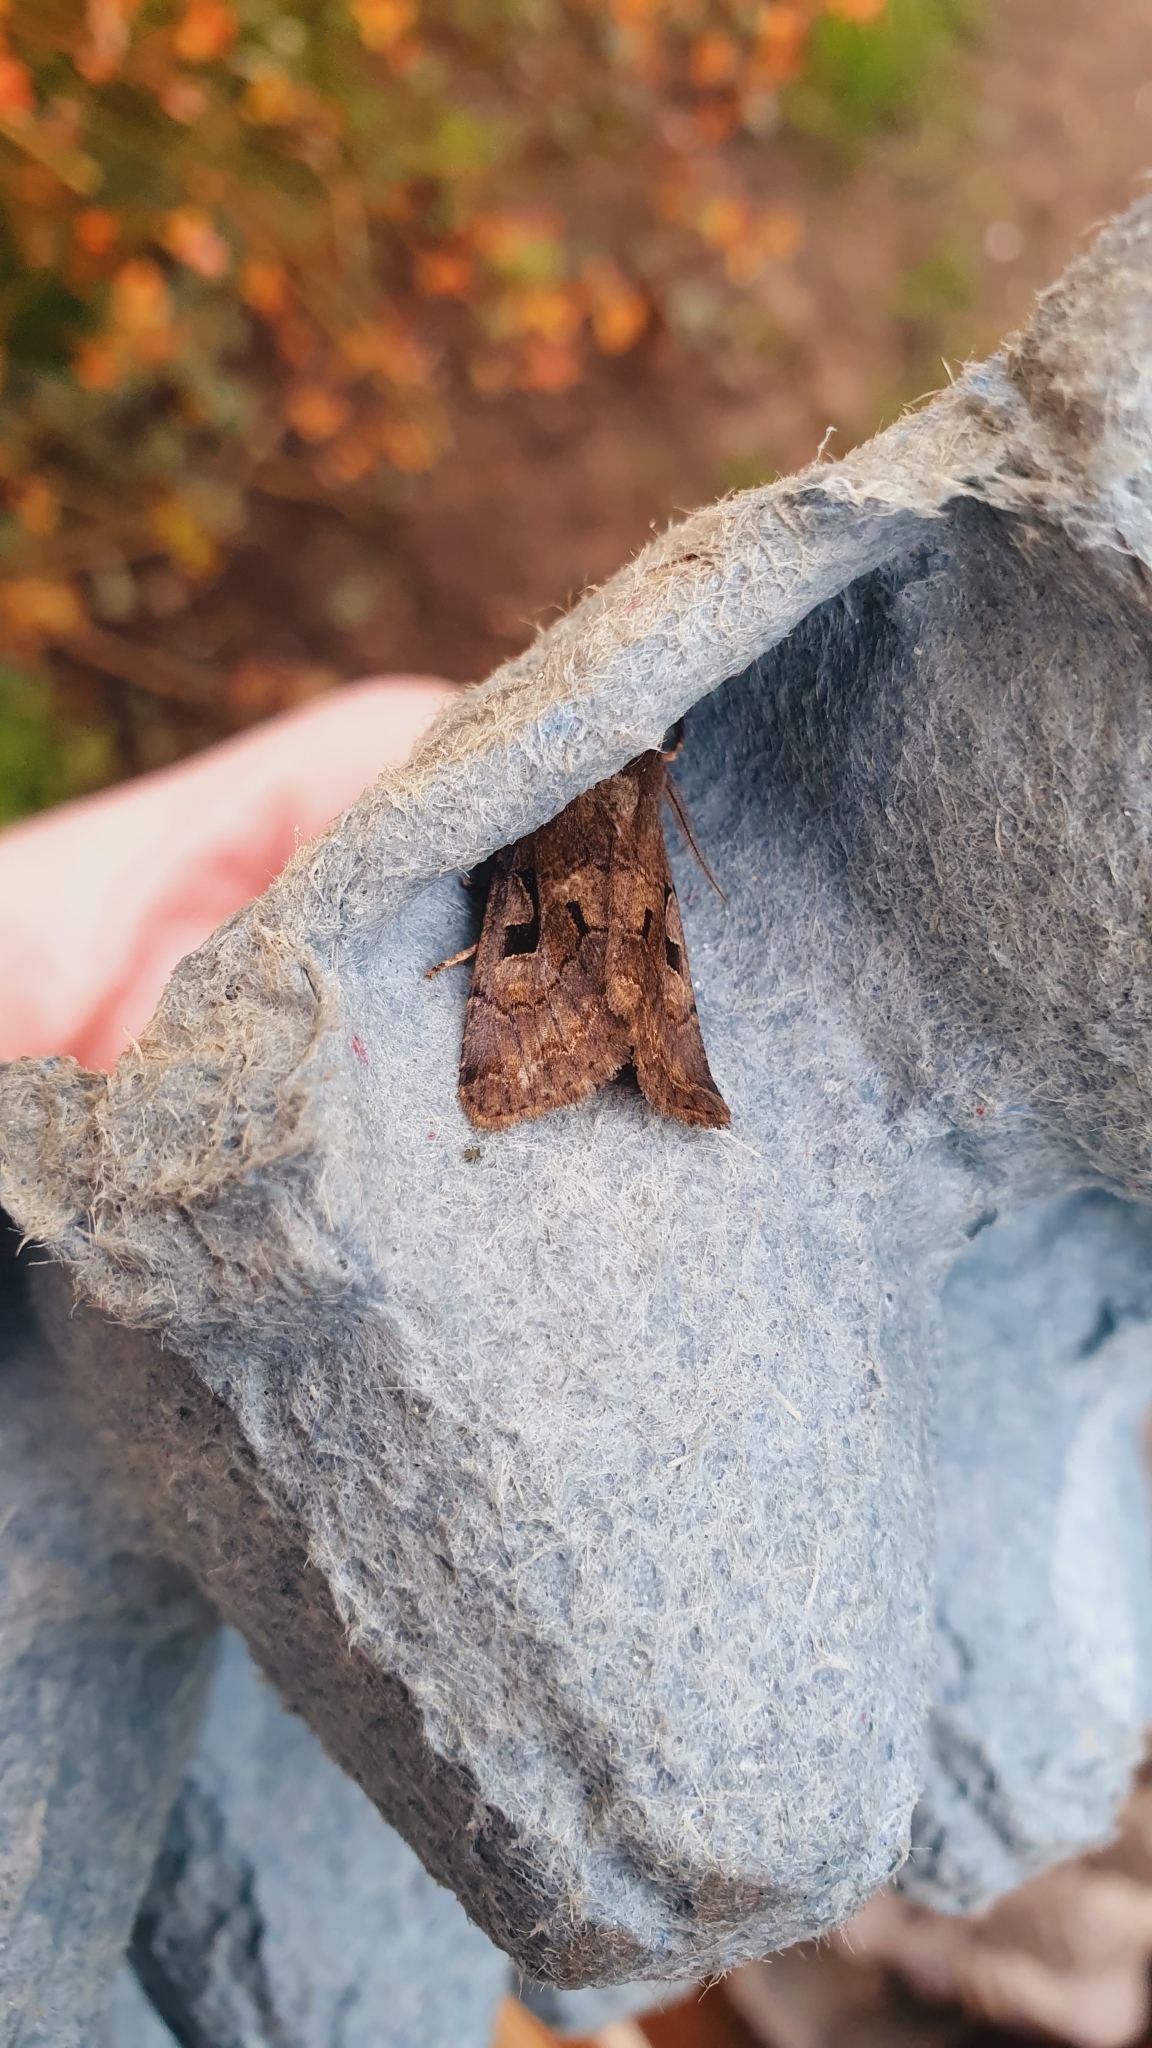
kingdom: Animalia
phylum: Arthropoda
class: Insecta
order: Lepidoptera
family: Noctuidae
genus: Orthosia
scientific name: Orthosia gothica
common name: Hebrew character
